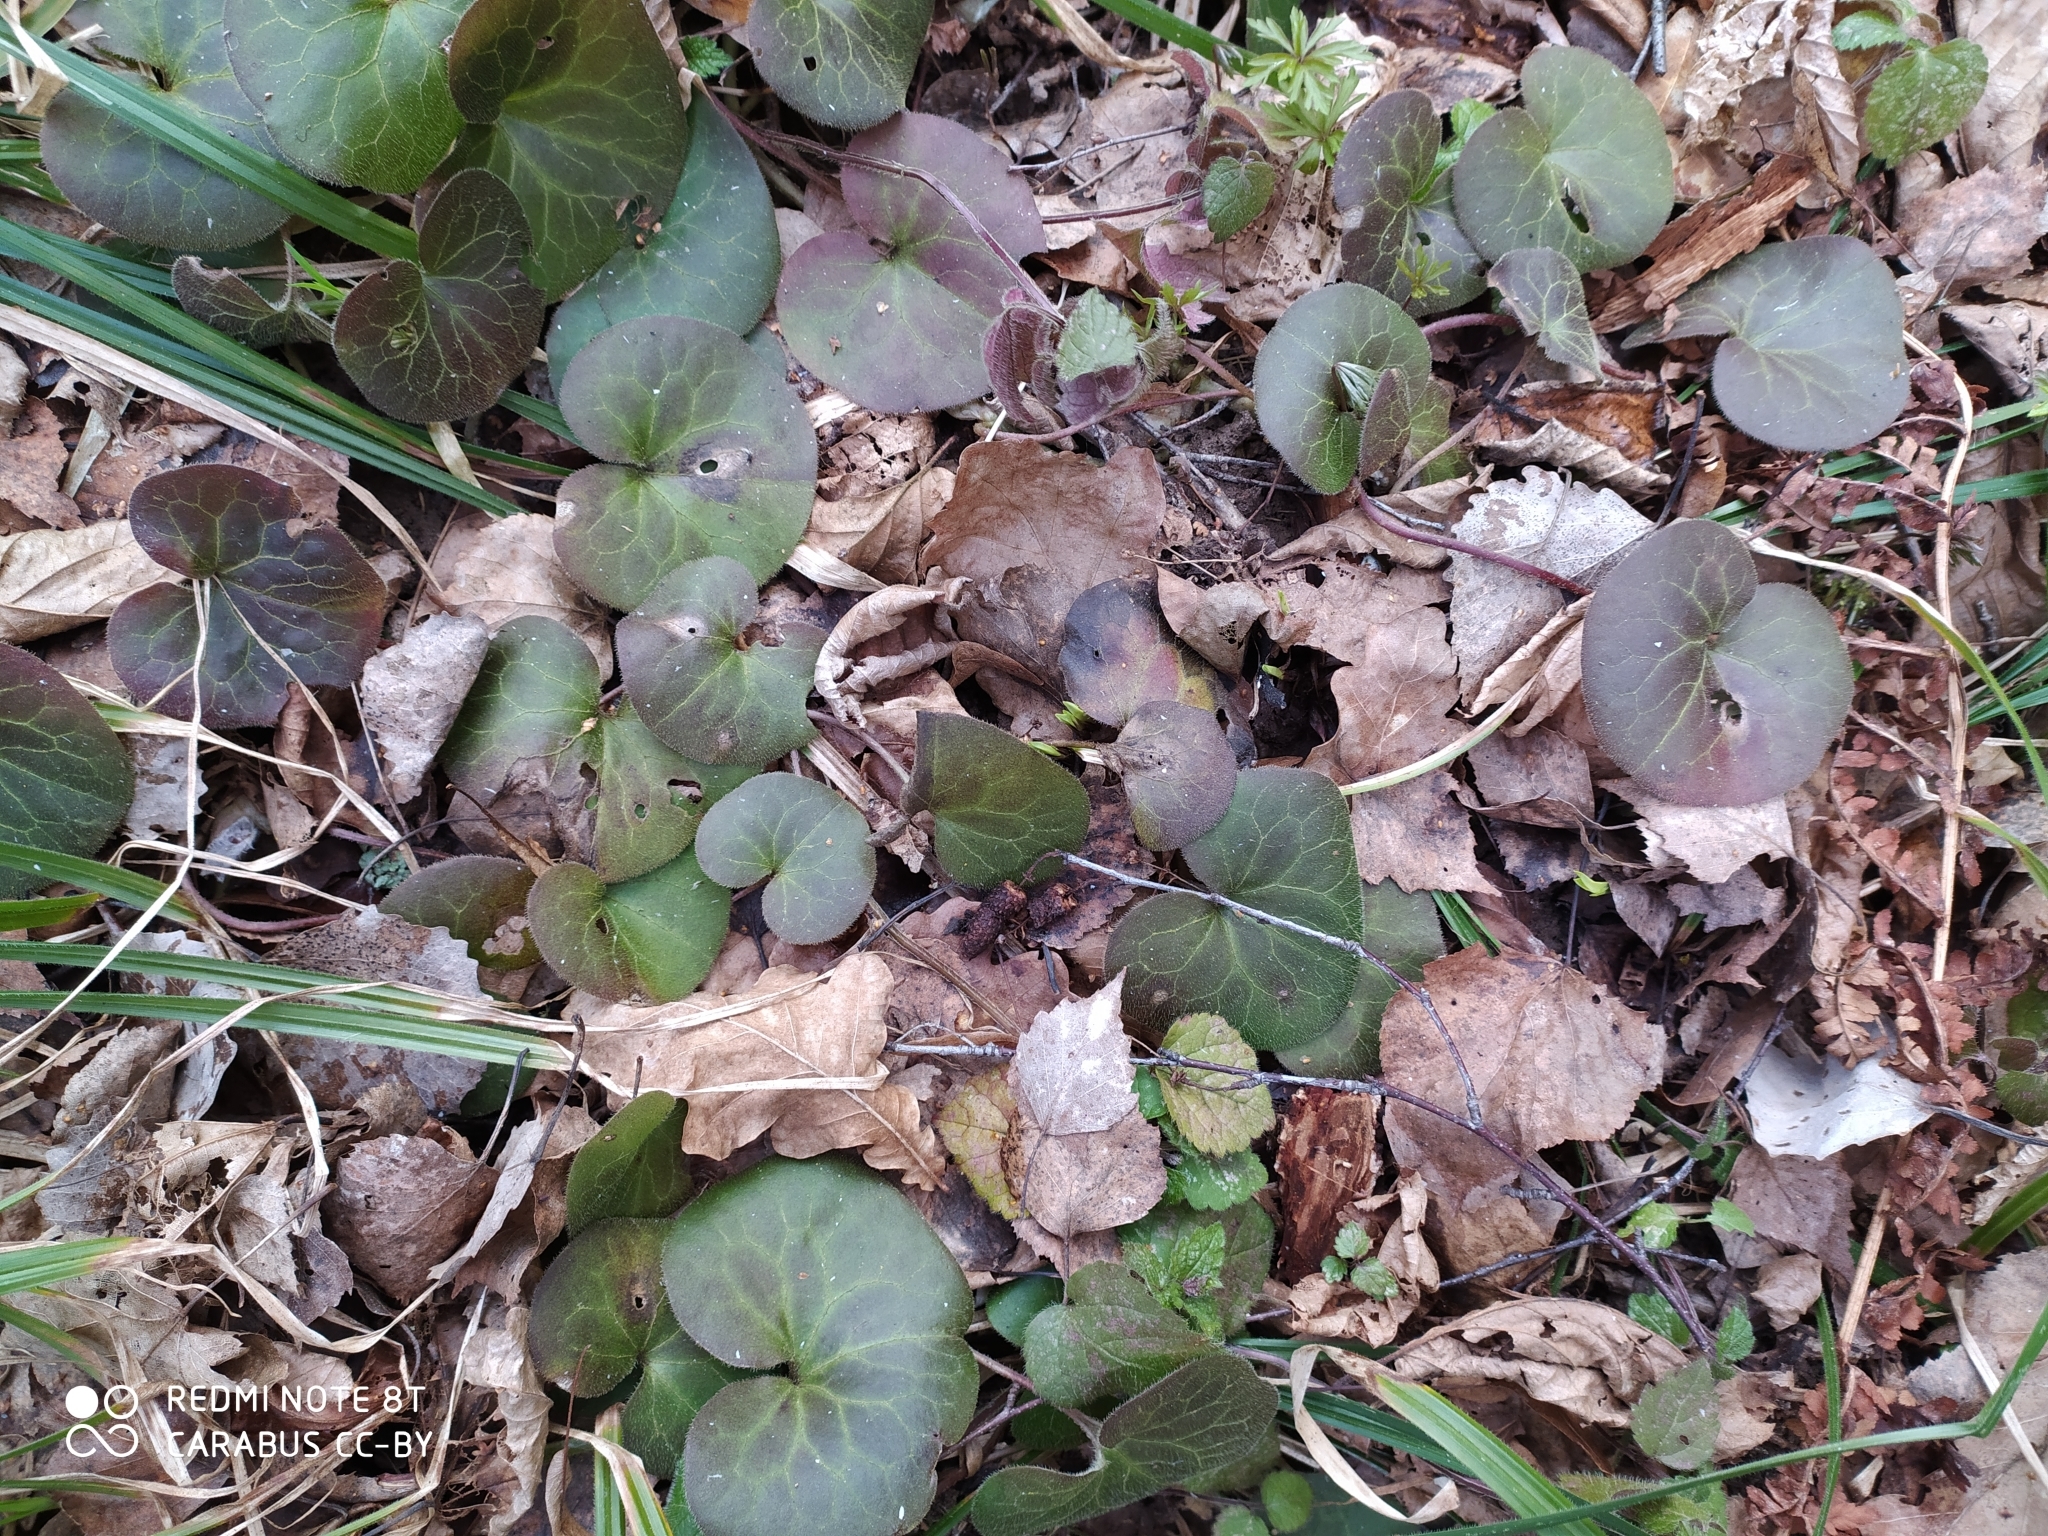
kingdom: Plantae
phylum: Tracheophyta
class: Magnoliopsida
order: Piperales
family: Aristolochiaceae
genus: Asarum
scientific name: Asarum europaeum
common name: Asarabacca
